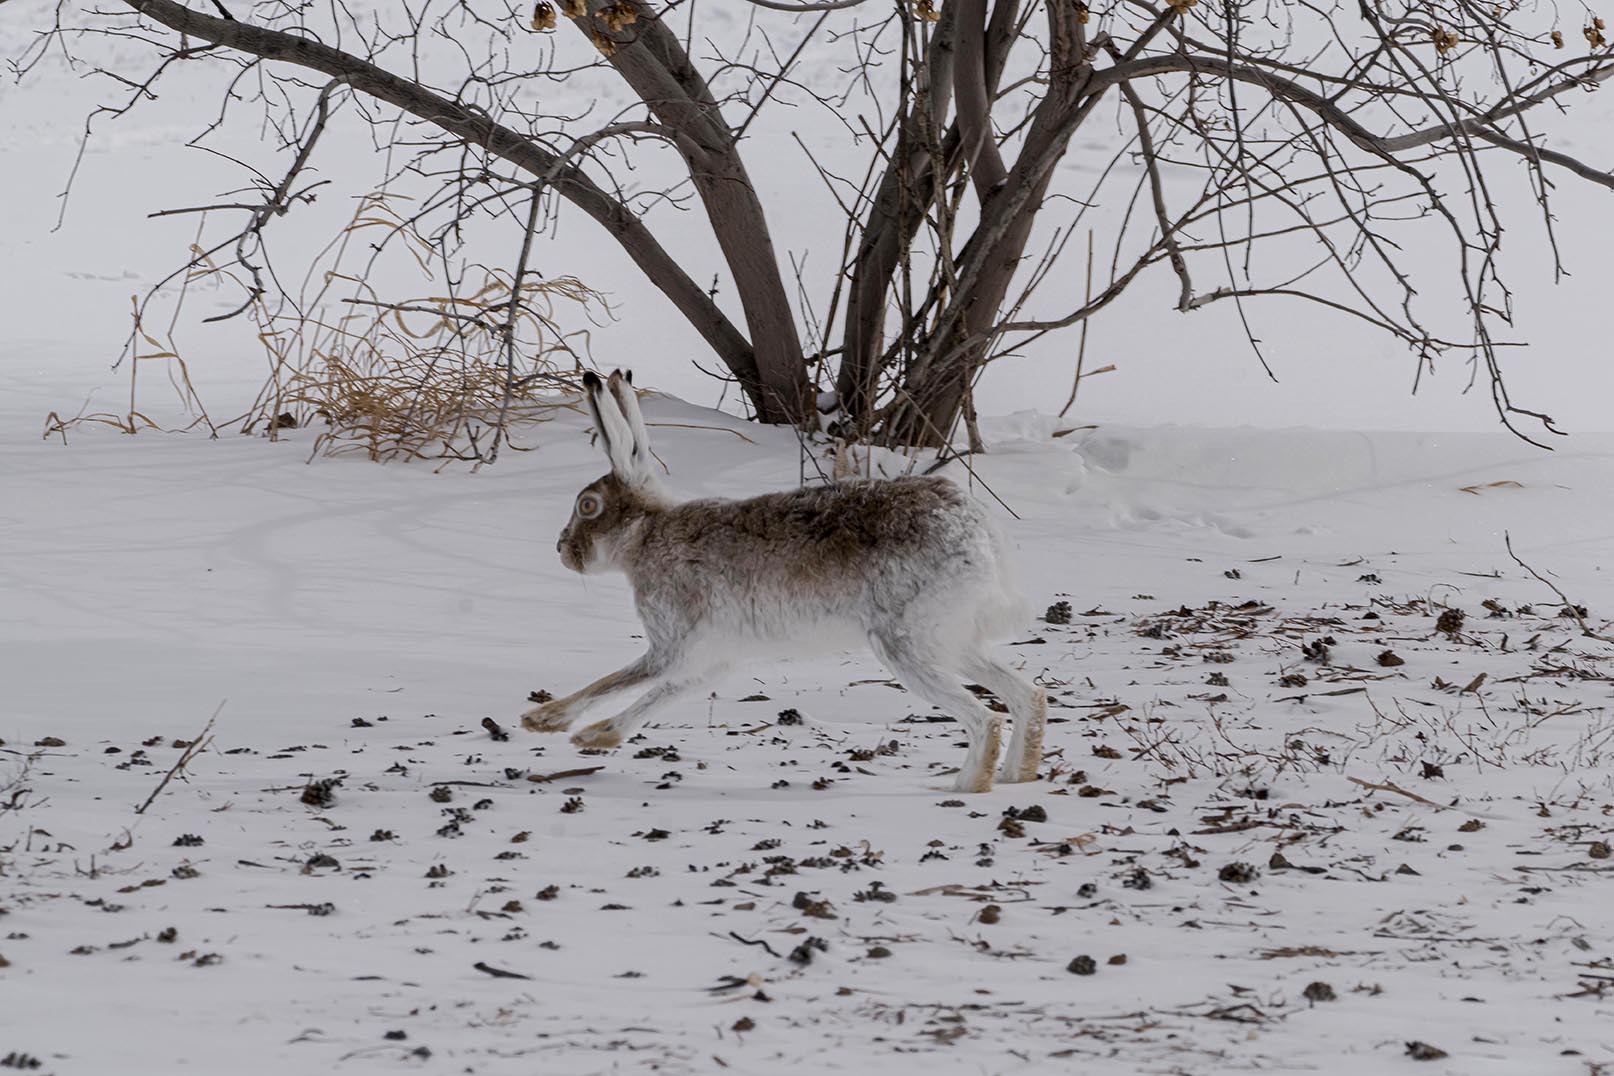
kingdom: Animalia
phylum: Chordata
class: Mammalia
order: Lagomorpha
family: Leporidae
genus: Lepus
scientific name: Lepus townsendii
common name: White-tailed jackrabbit
